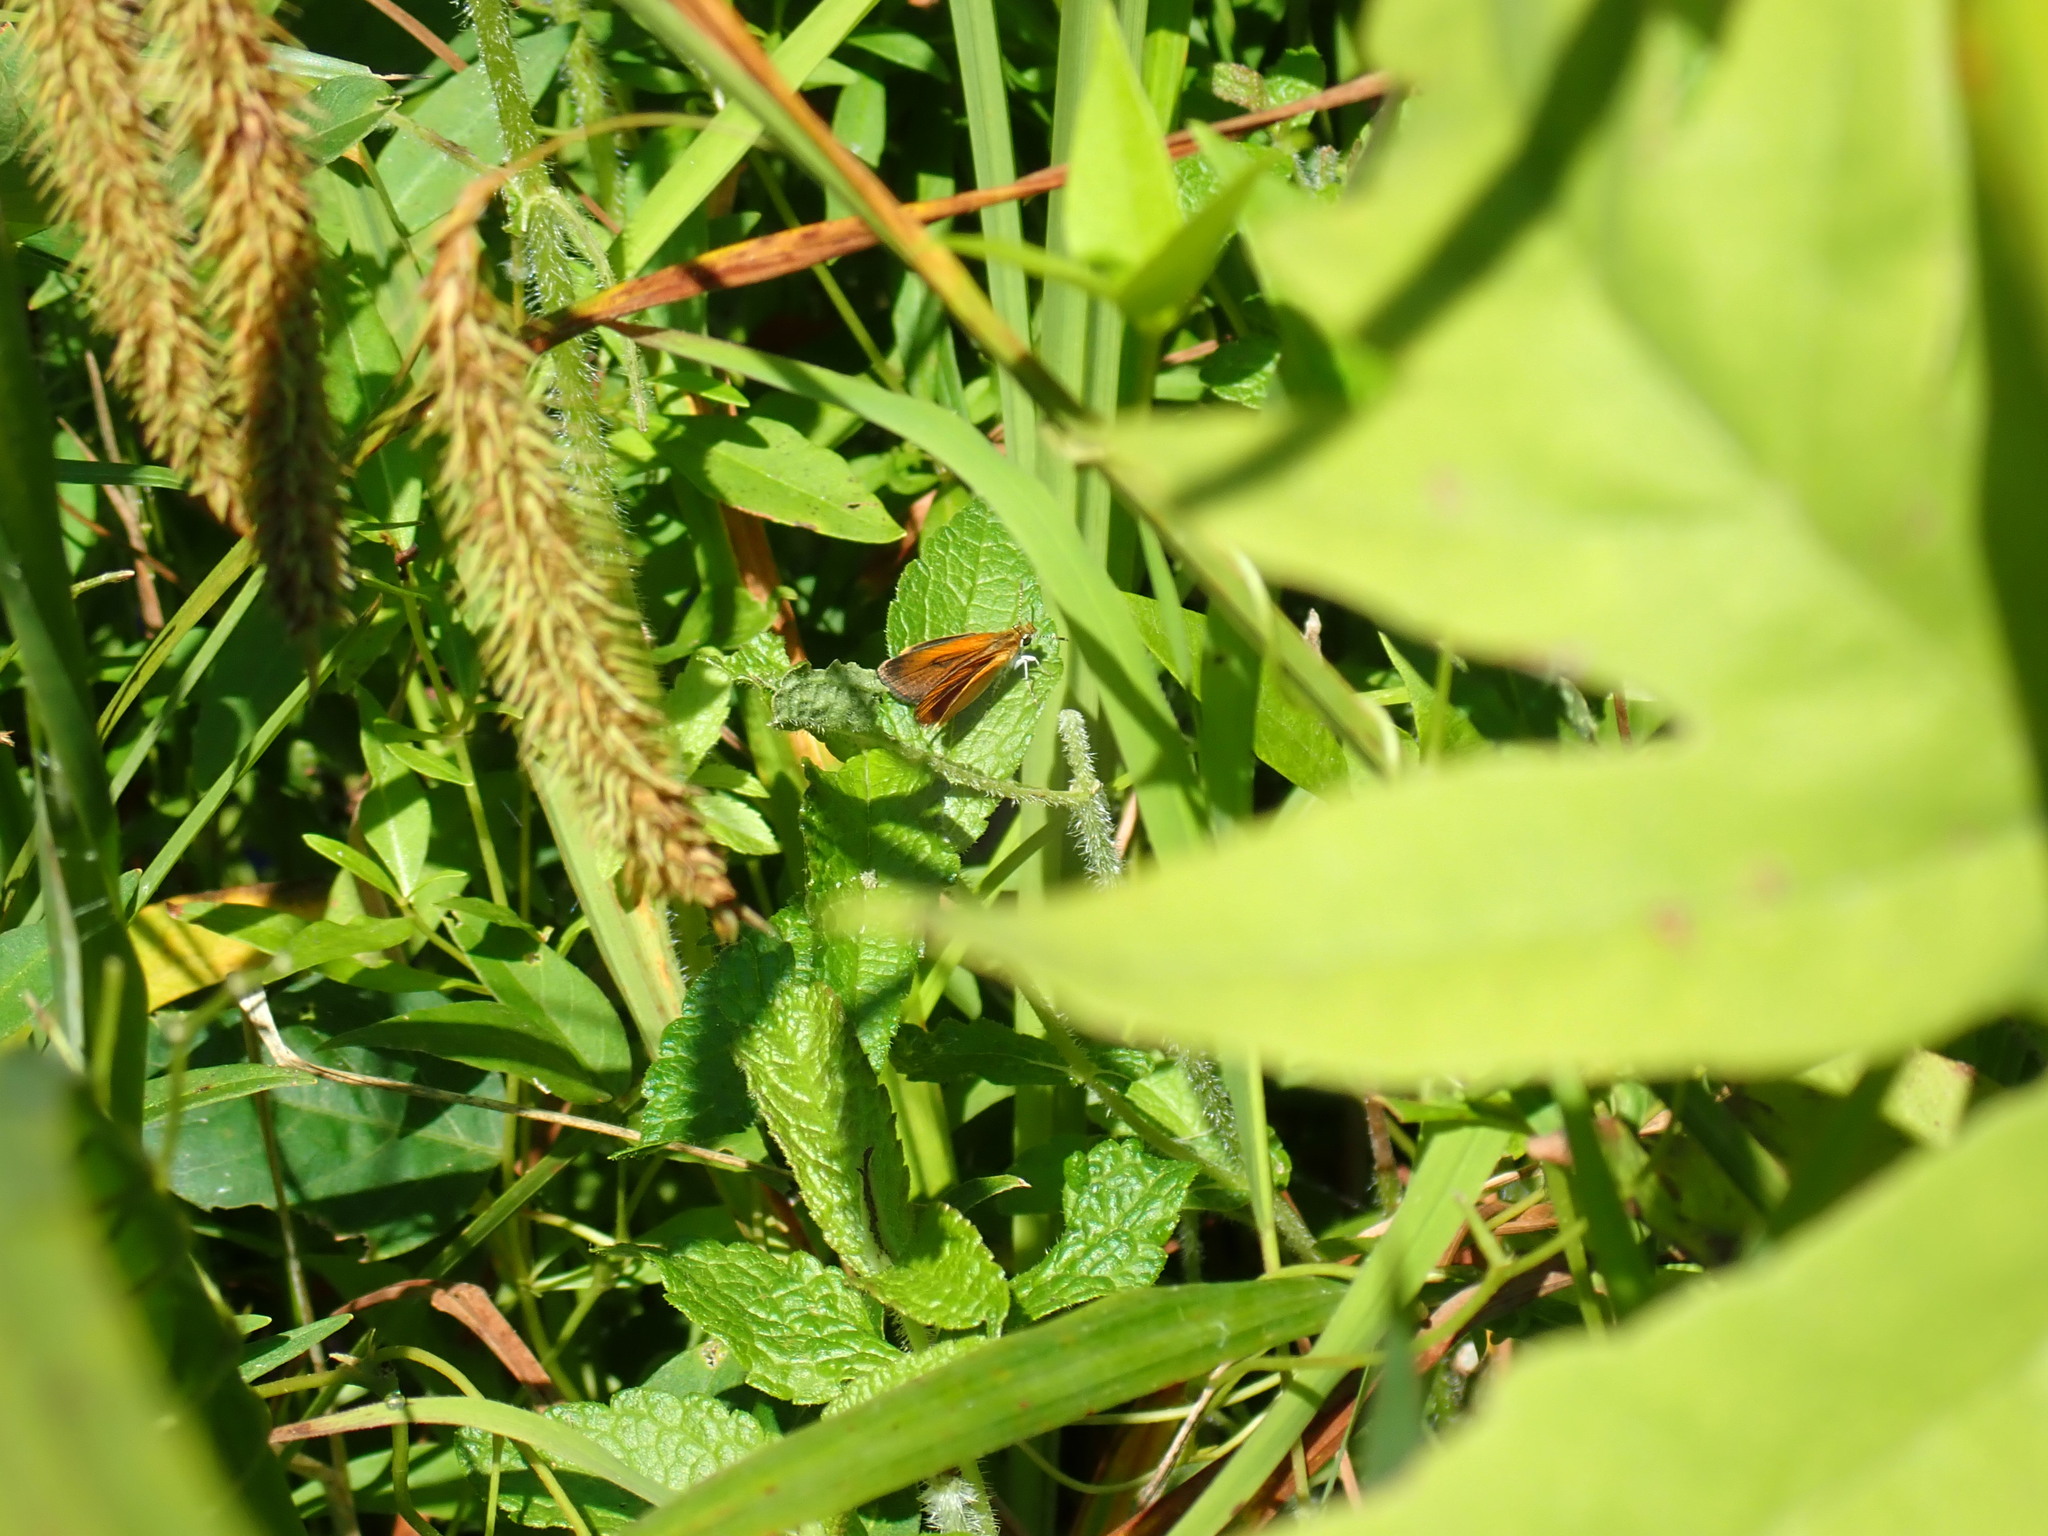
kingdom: Animalia
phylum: Arthropoda
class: Insecta
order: Lepidoptera
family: Hesperiidae
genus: Ancyloxypha
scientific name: Ancyloxypha numitor
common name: Least skipper
